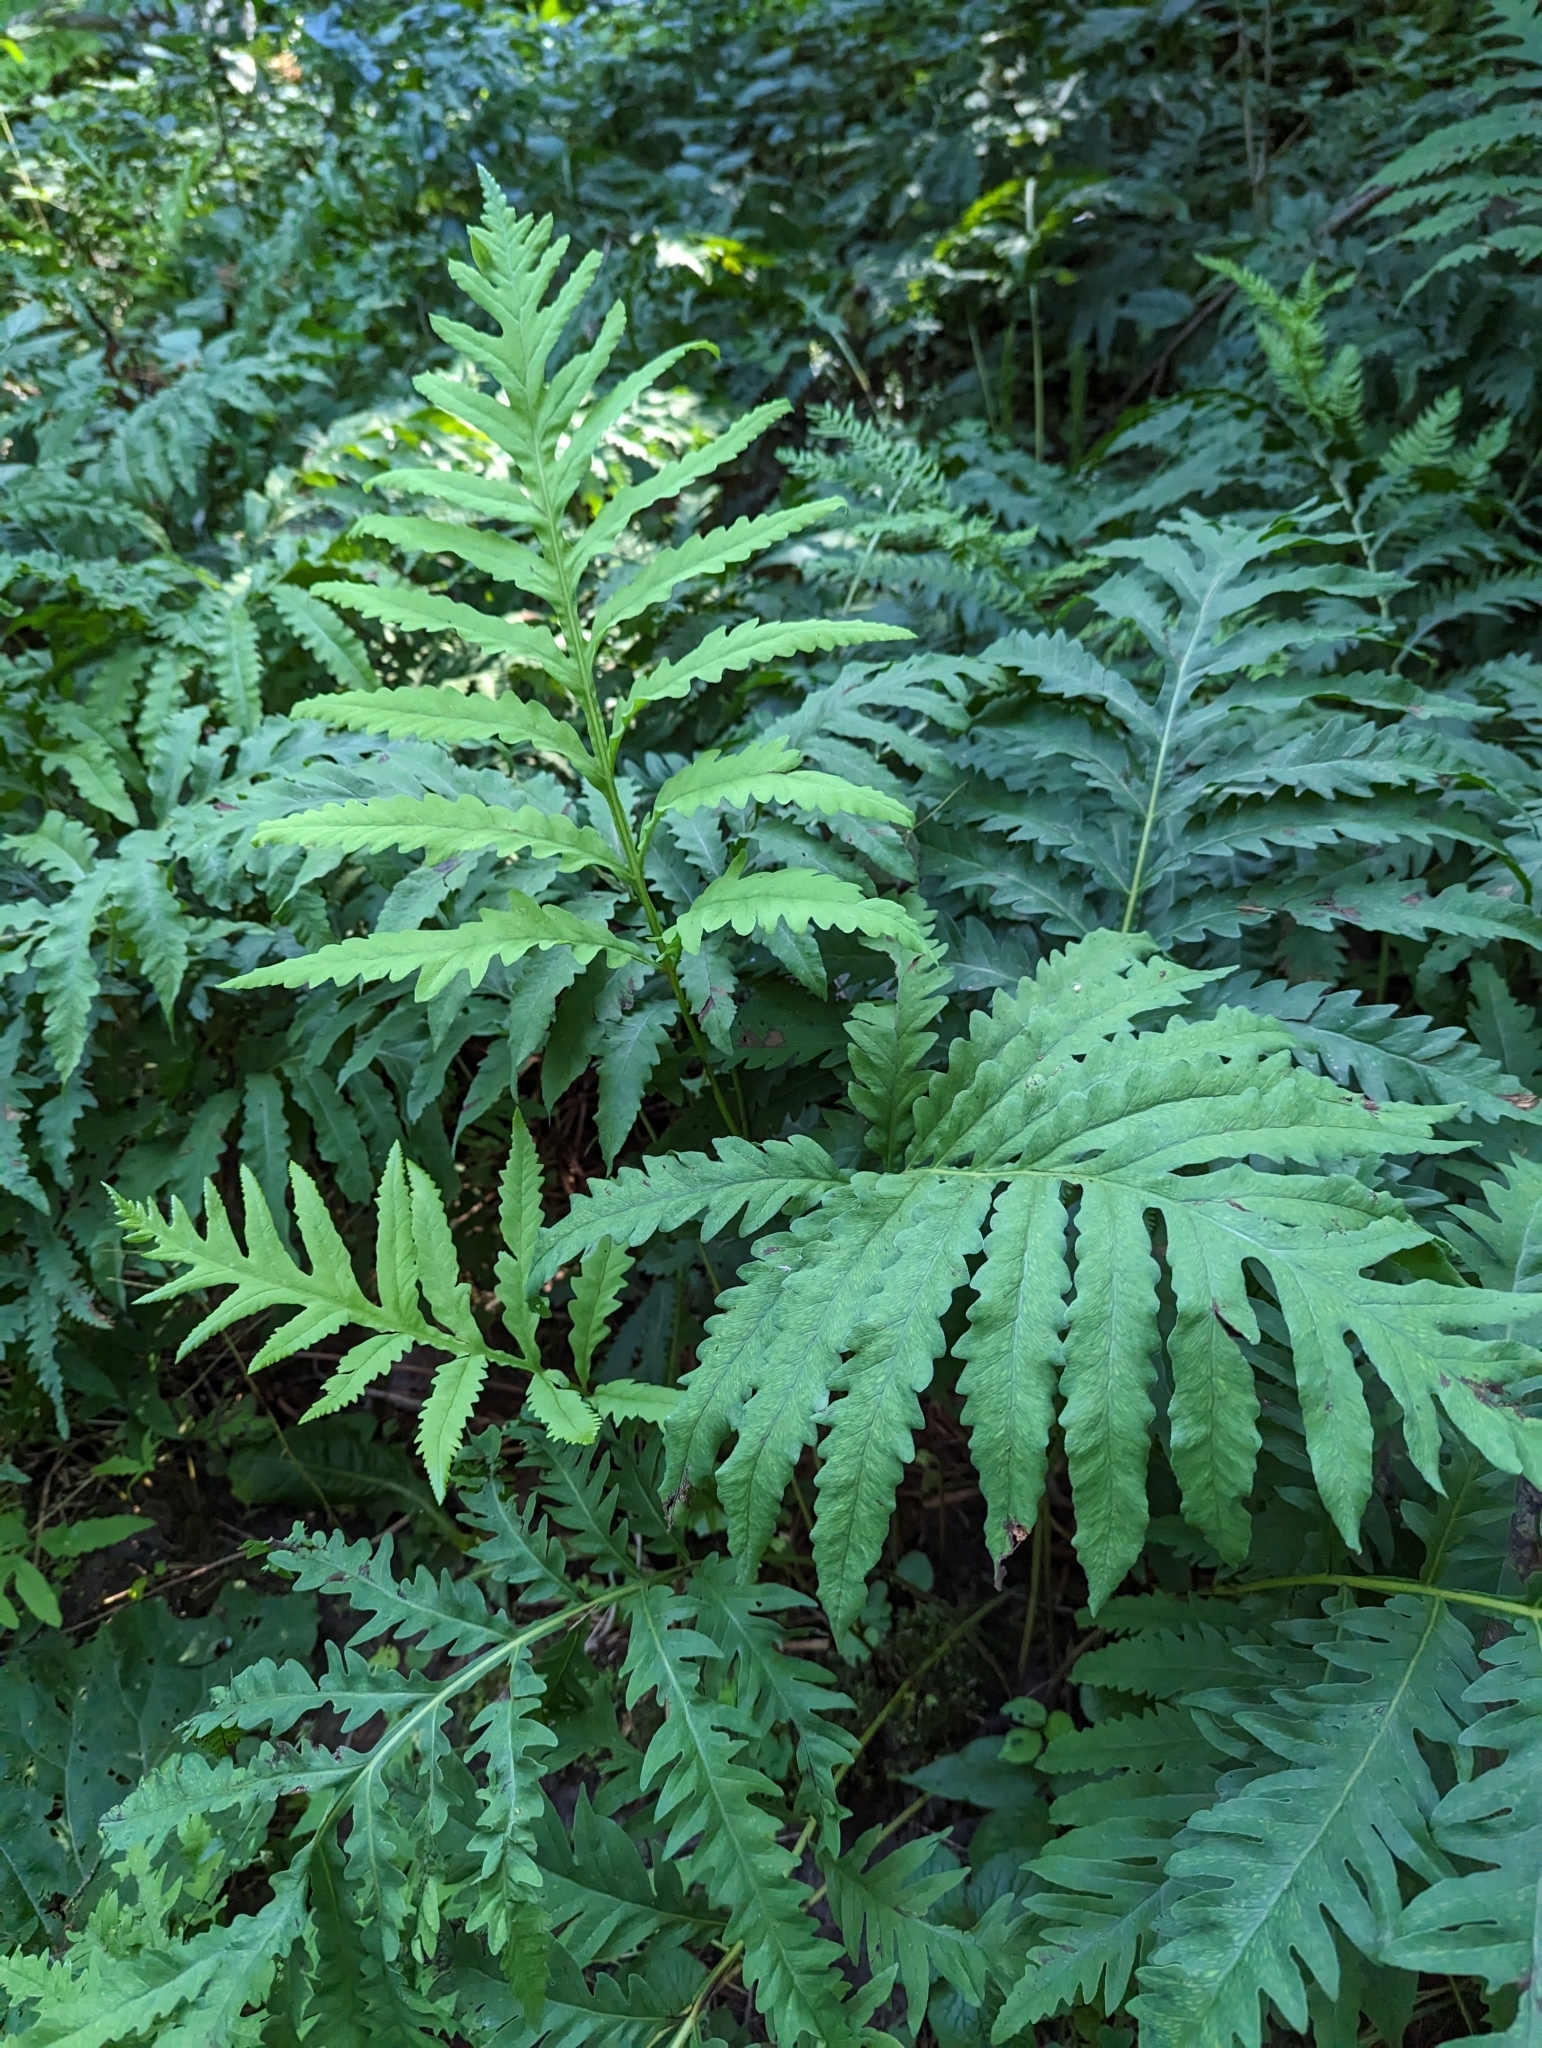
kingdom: Plantae
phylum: Tracheophyta
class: Polypodiopsida
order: Polypodiales
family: Onocleaceae
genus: Onoclea
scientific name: Onoclea sensibilis
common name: Sensitive fern
